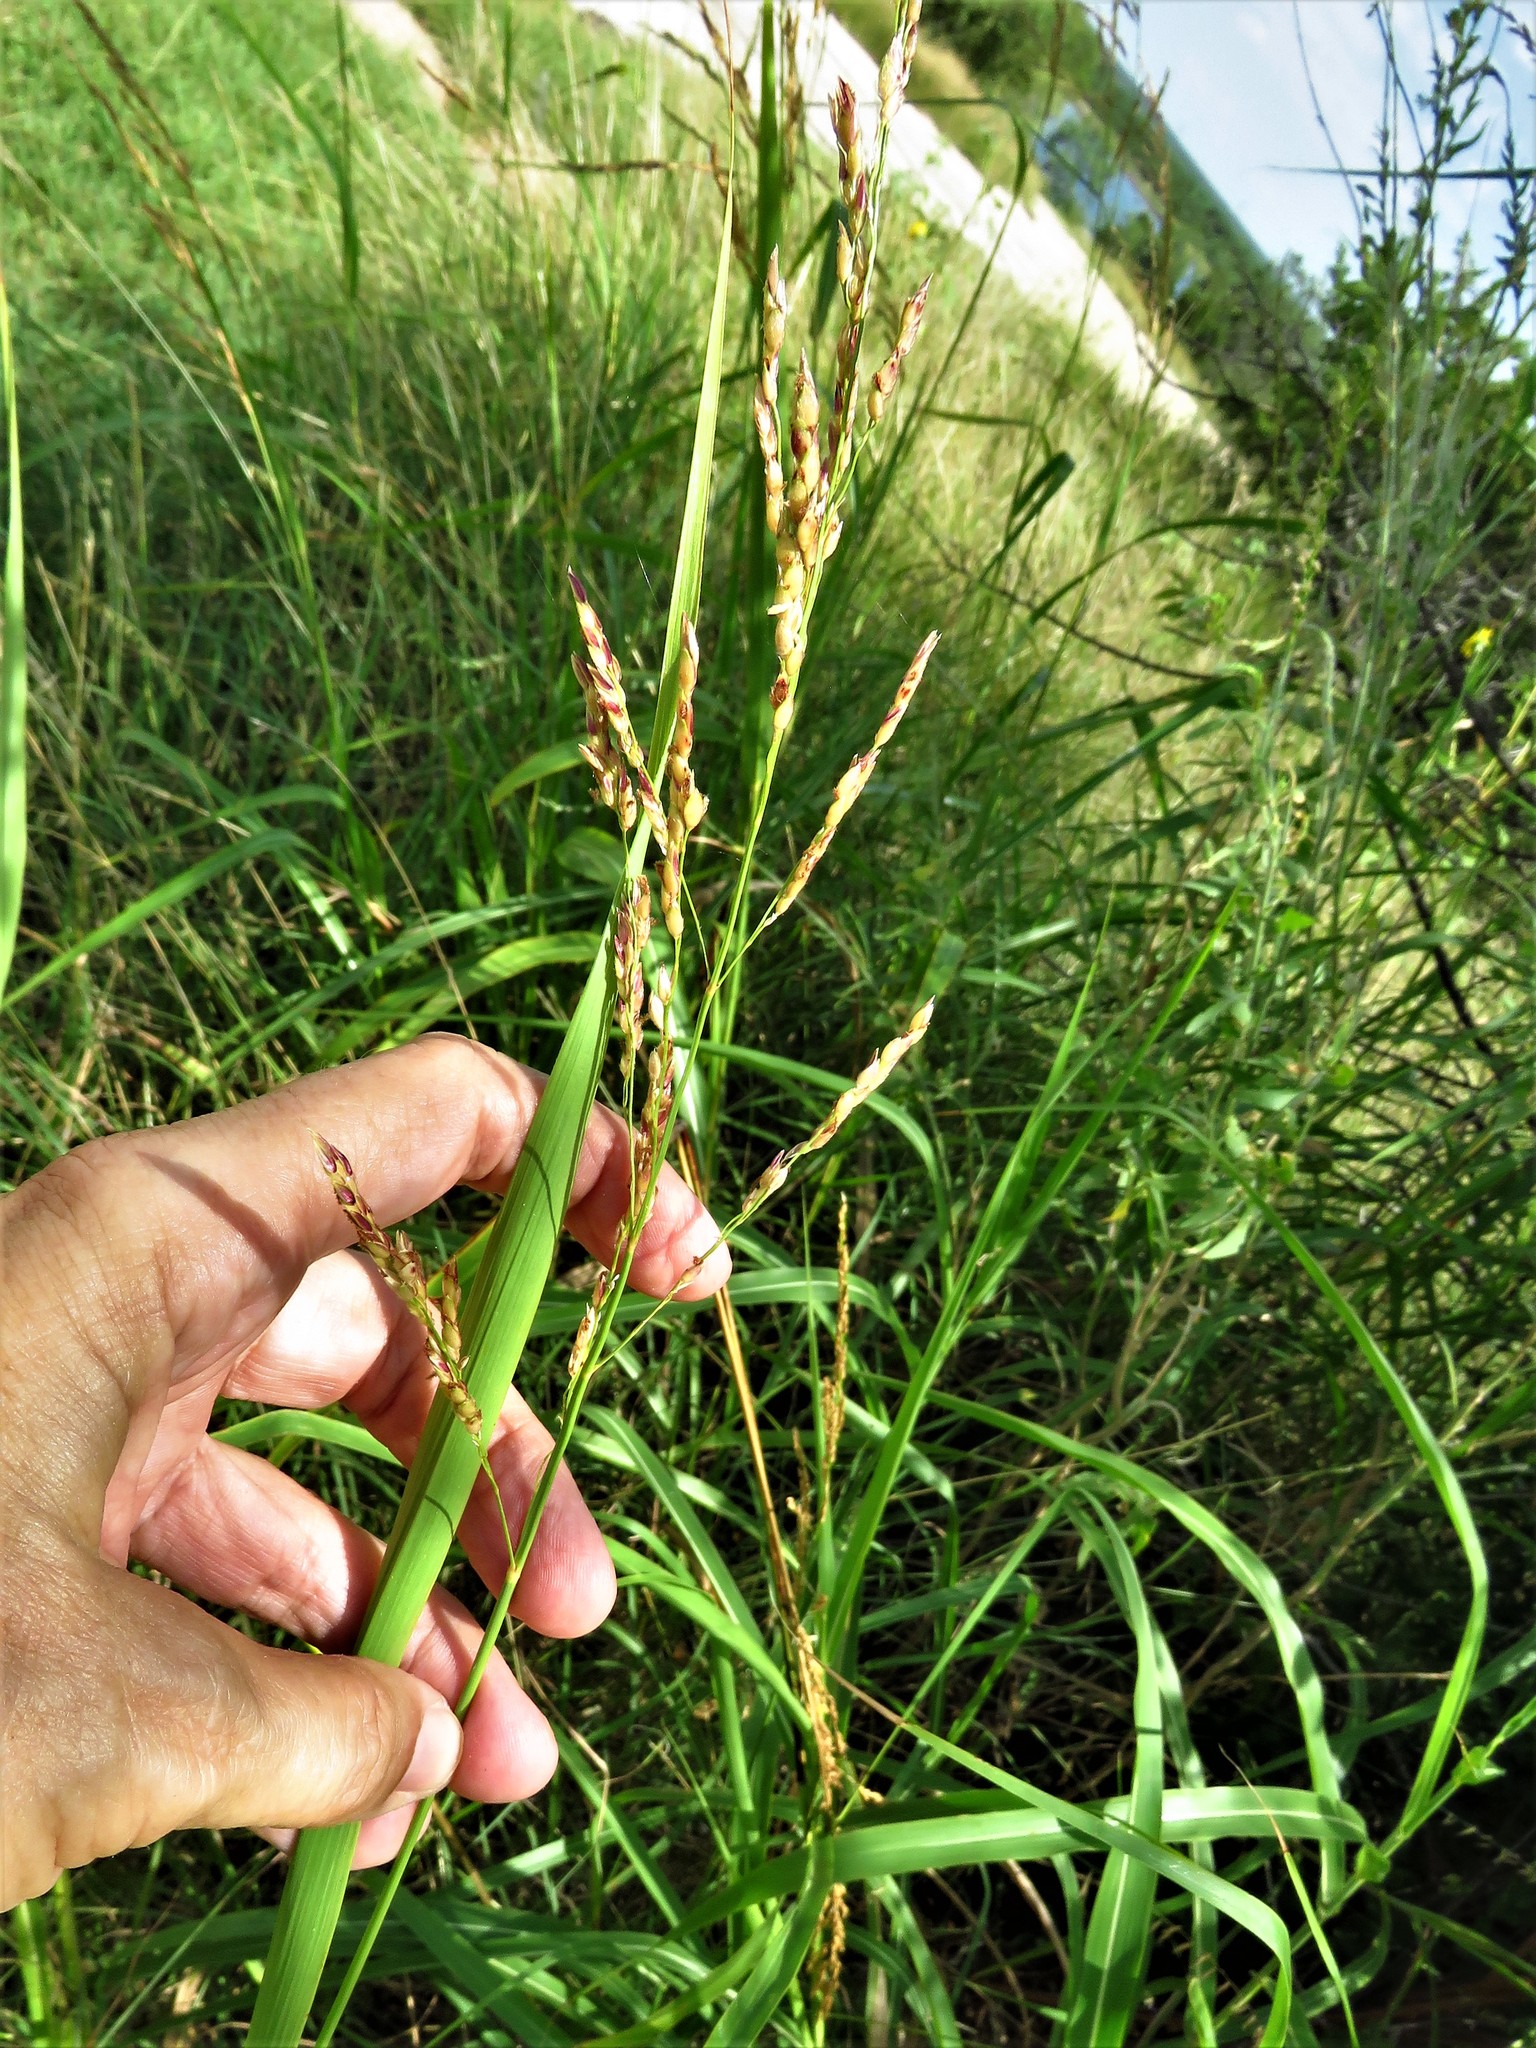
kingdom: Plantae
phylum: Tracheophyta
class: Liliopsida
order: Poales
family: Poaceae
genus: Sorghum
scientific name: Sorghum halepense
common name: Johnson-grass
